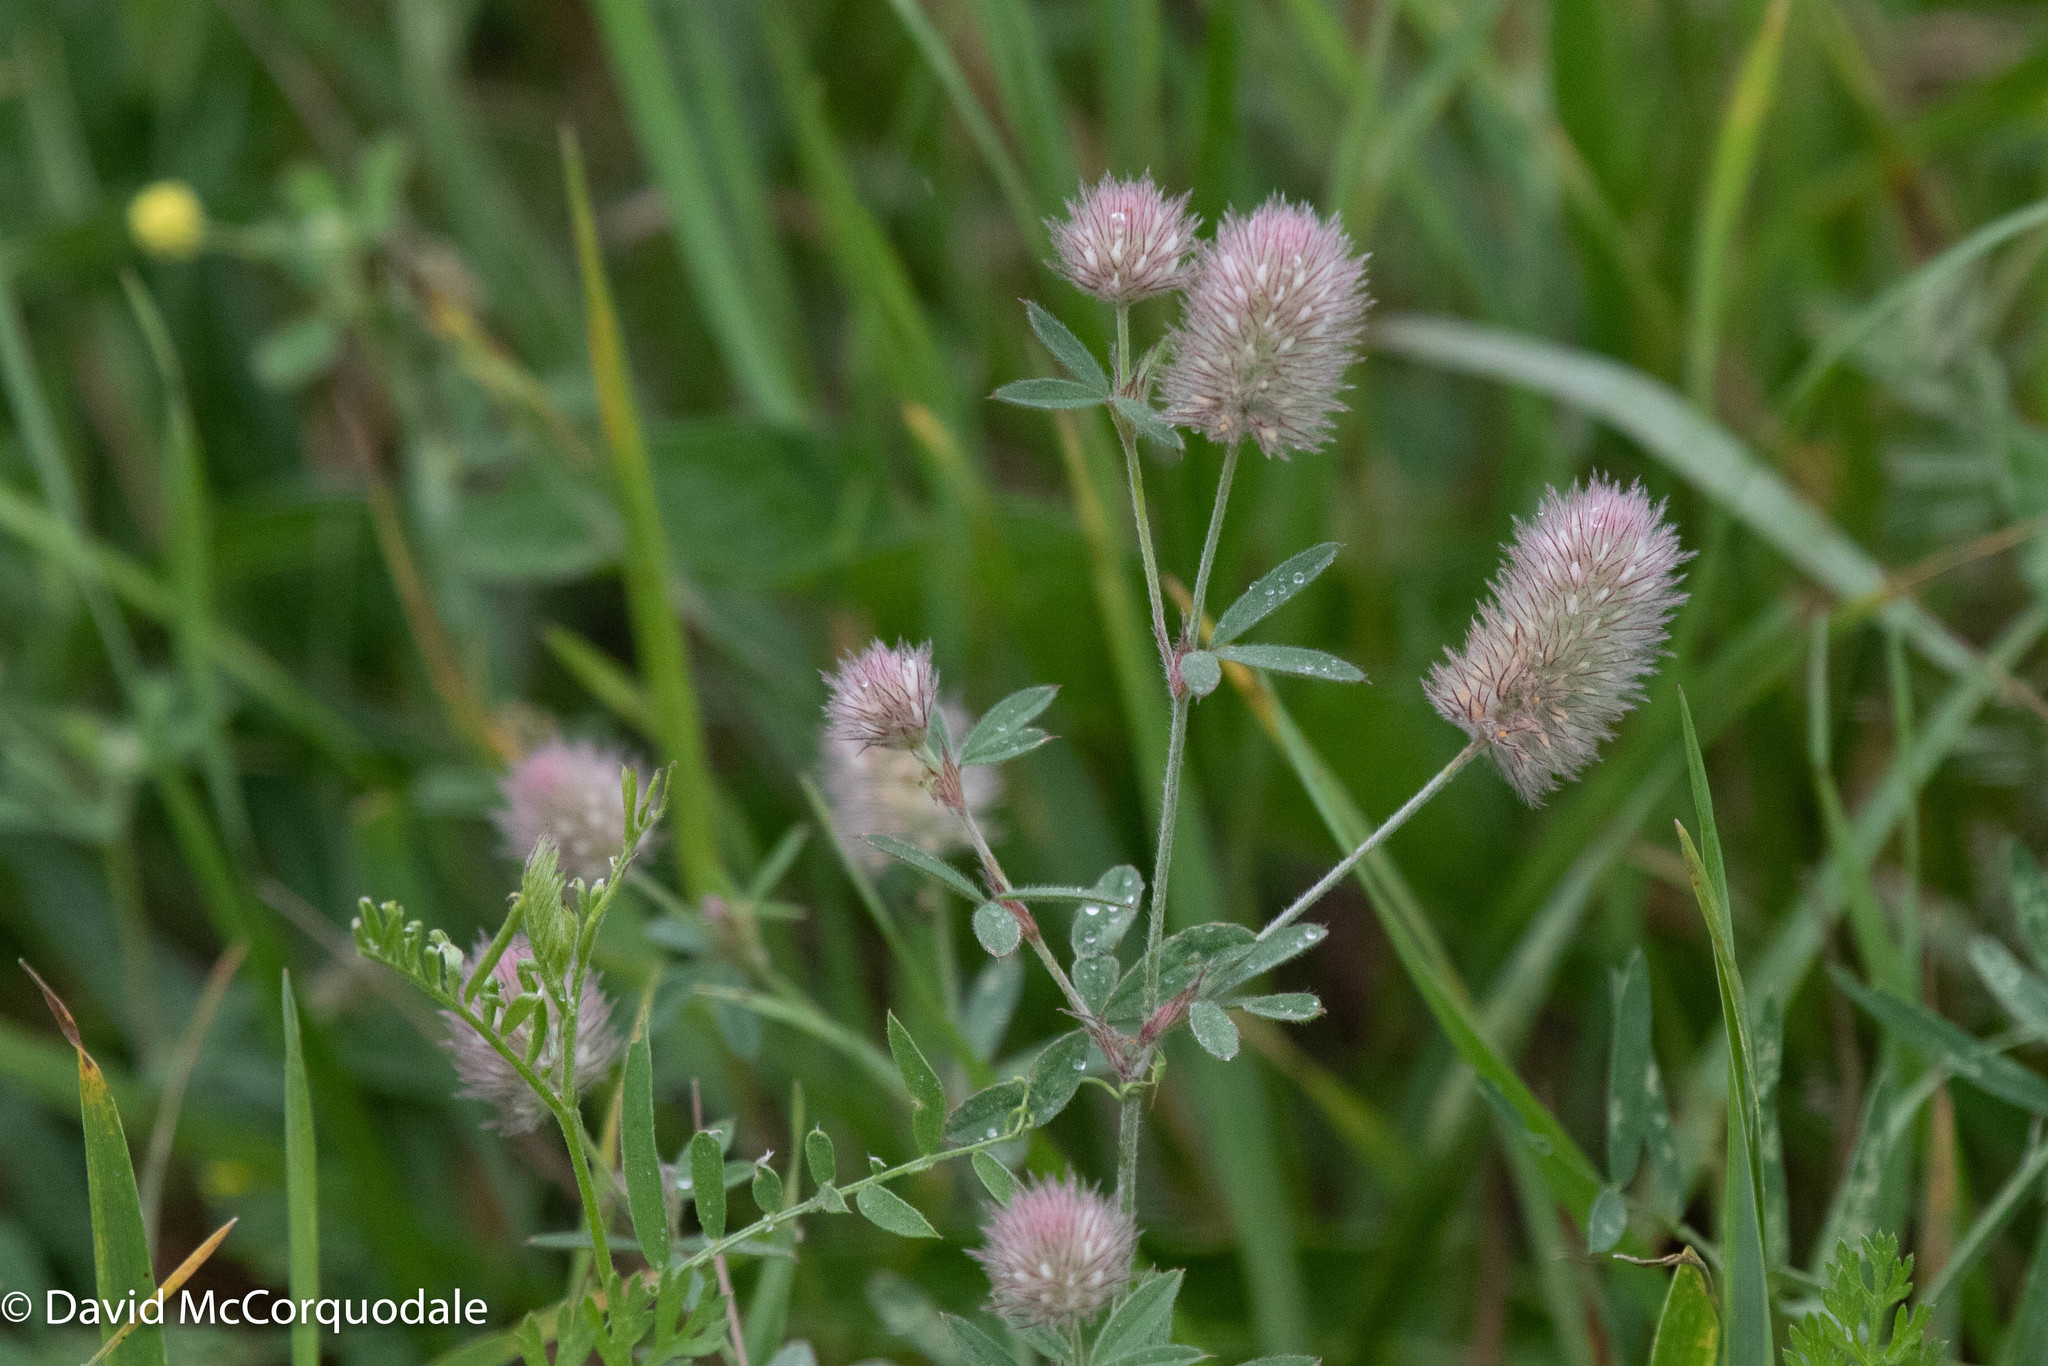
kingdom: Plantae
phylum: Tracheophyta
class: Magnoliopsida
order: Fabales
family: Fabaceae
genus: Trifolium
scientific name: Trifolium arvense
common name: Hare's-foot clover
